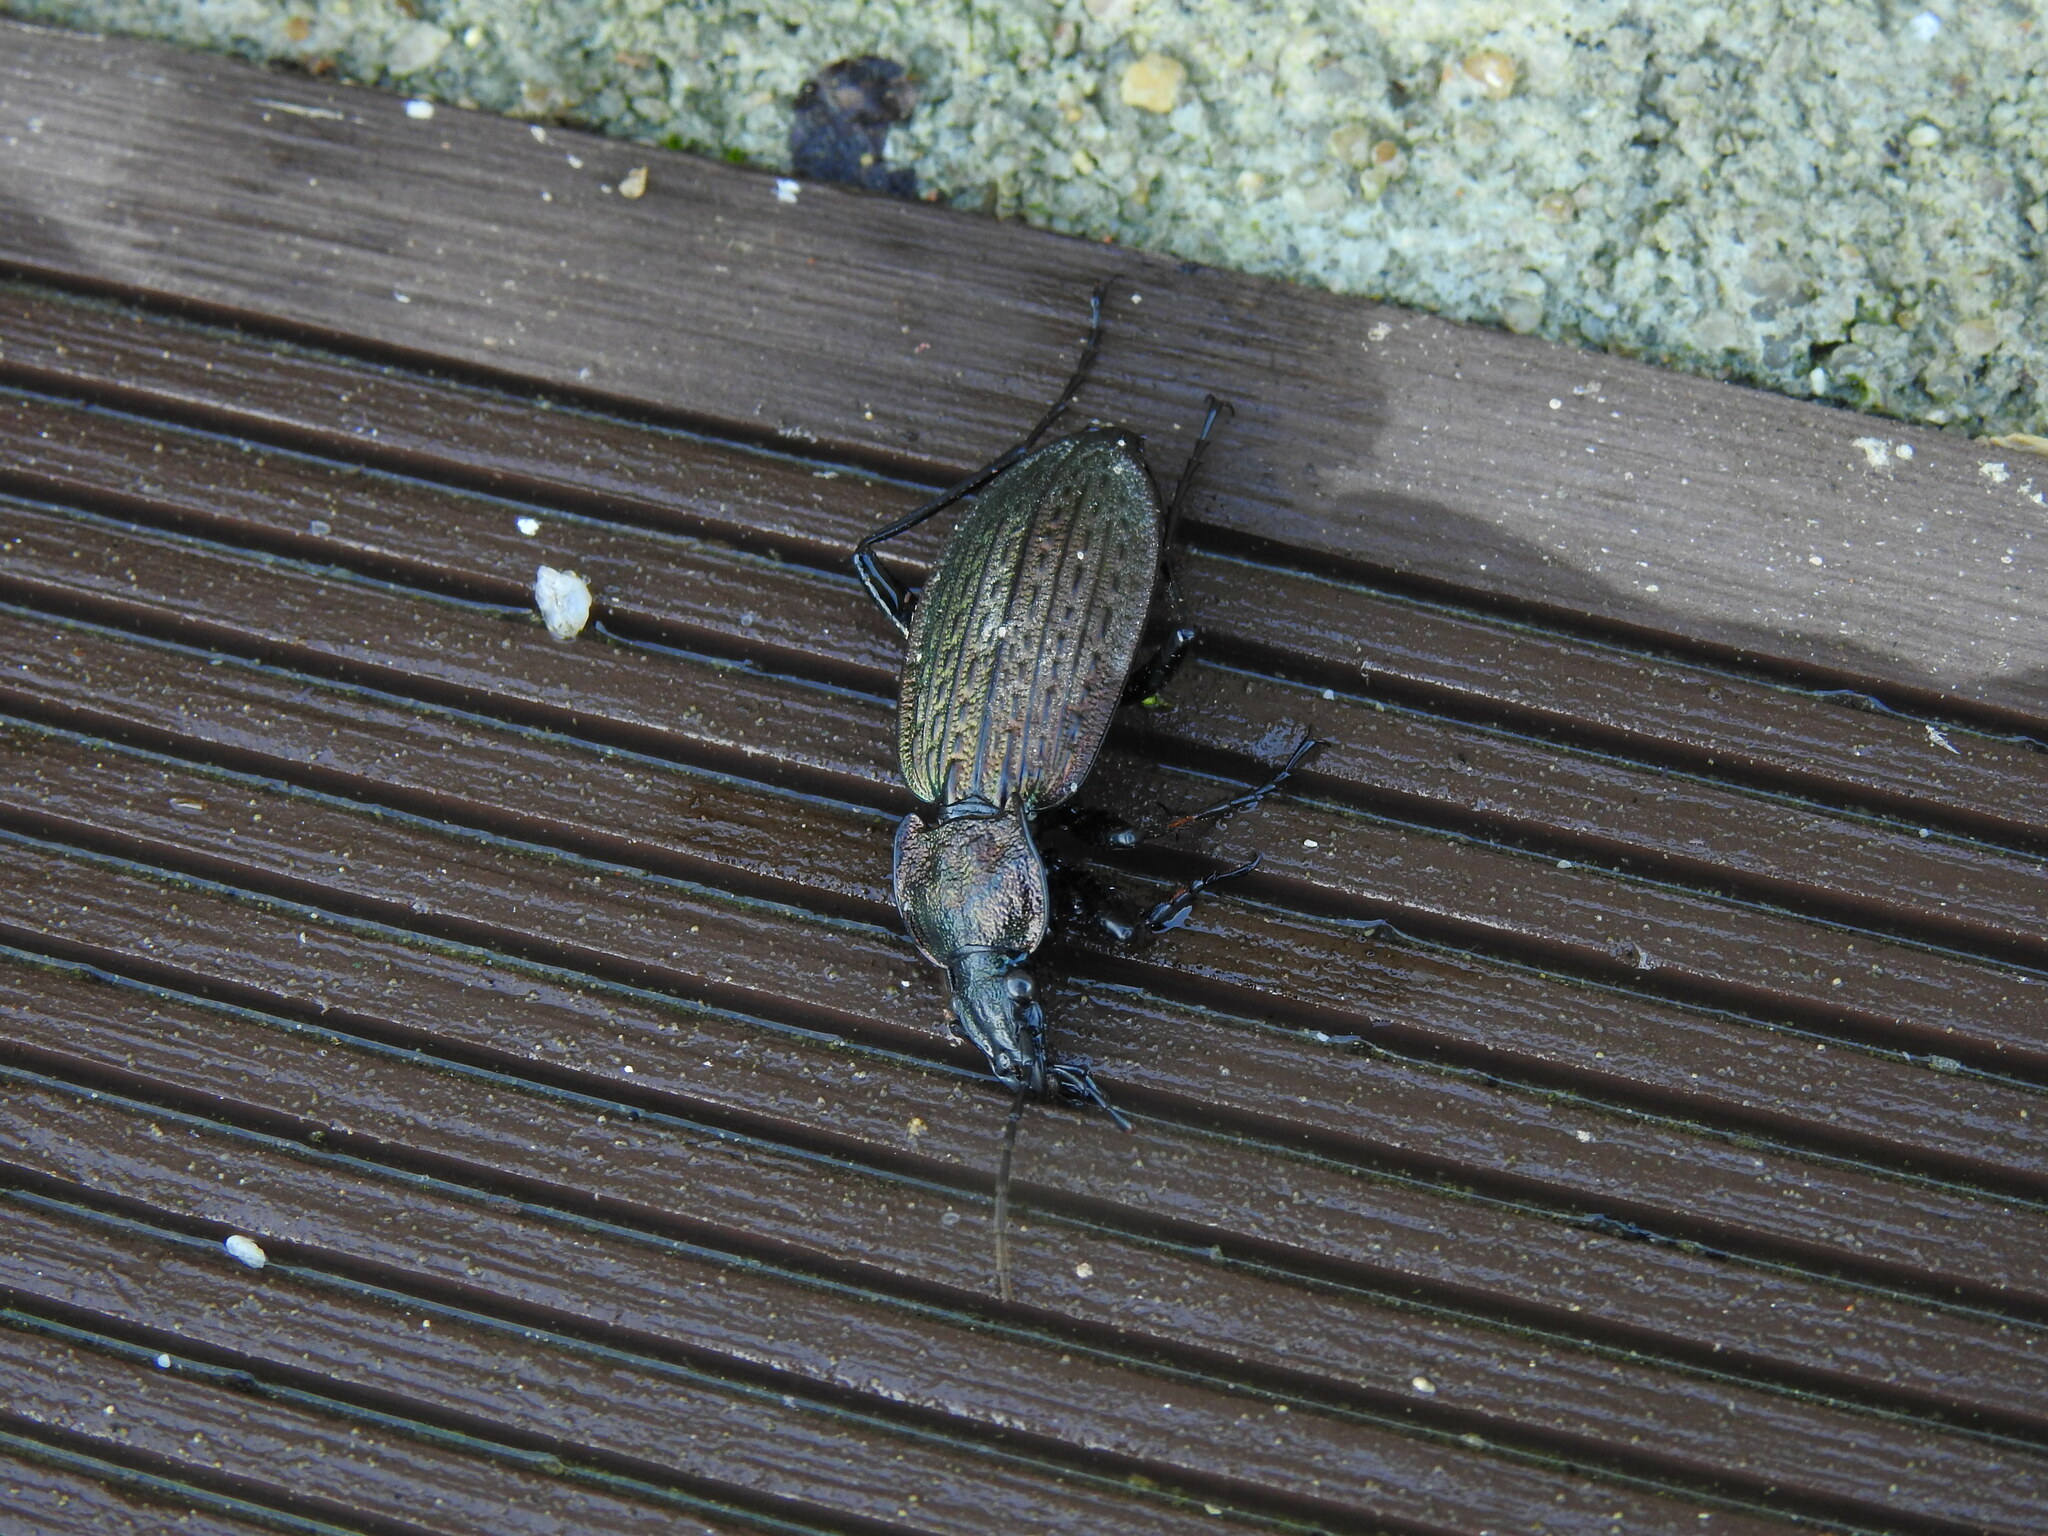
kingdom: Animalia
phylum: Arthropoda
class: Insecta
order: Coleoptera
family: Carabidae
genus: Carabus
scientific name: Carabus rugosus
